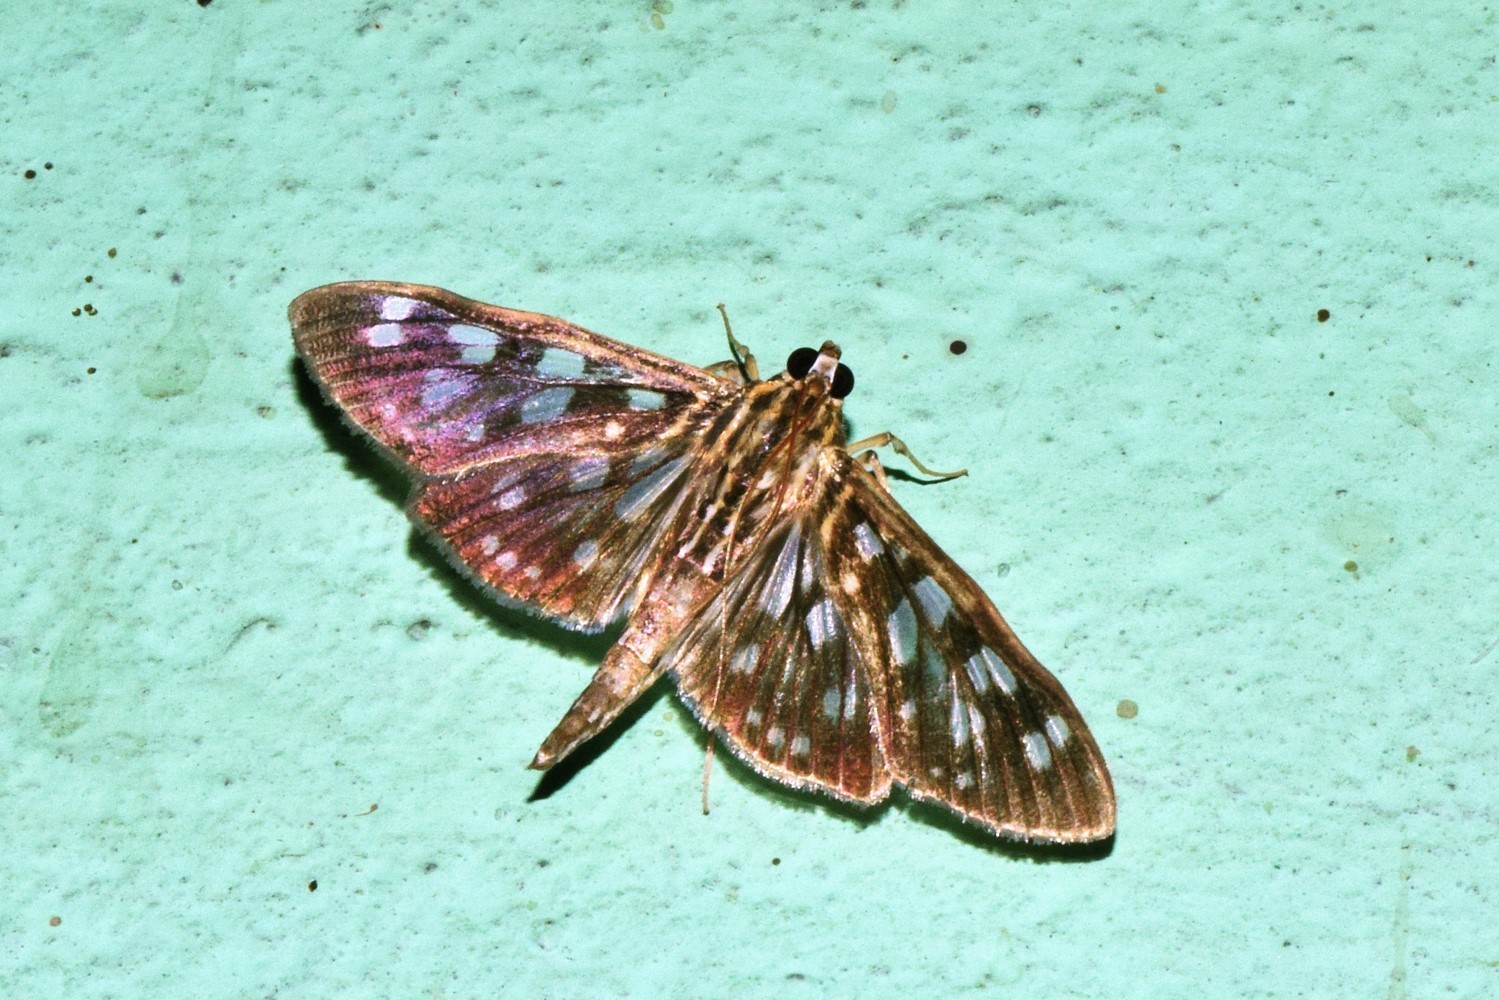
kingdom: Animalia
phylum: Arthropoda
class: Insecta
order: Lepidoptera
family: Crambidae
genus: Pygospila
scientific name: Pygospila tyres
